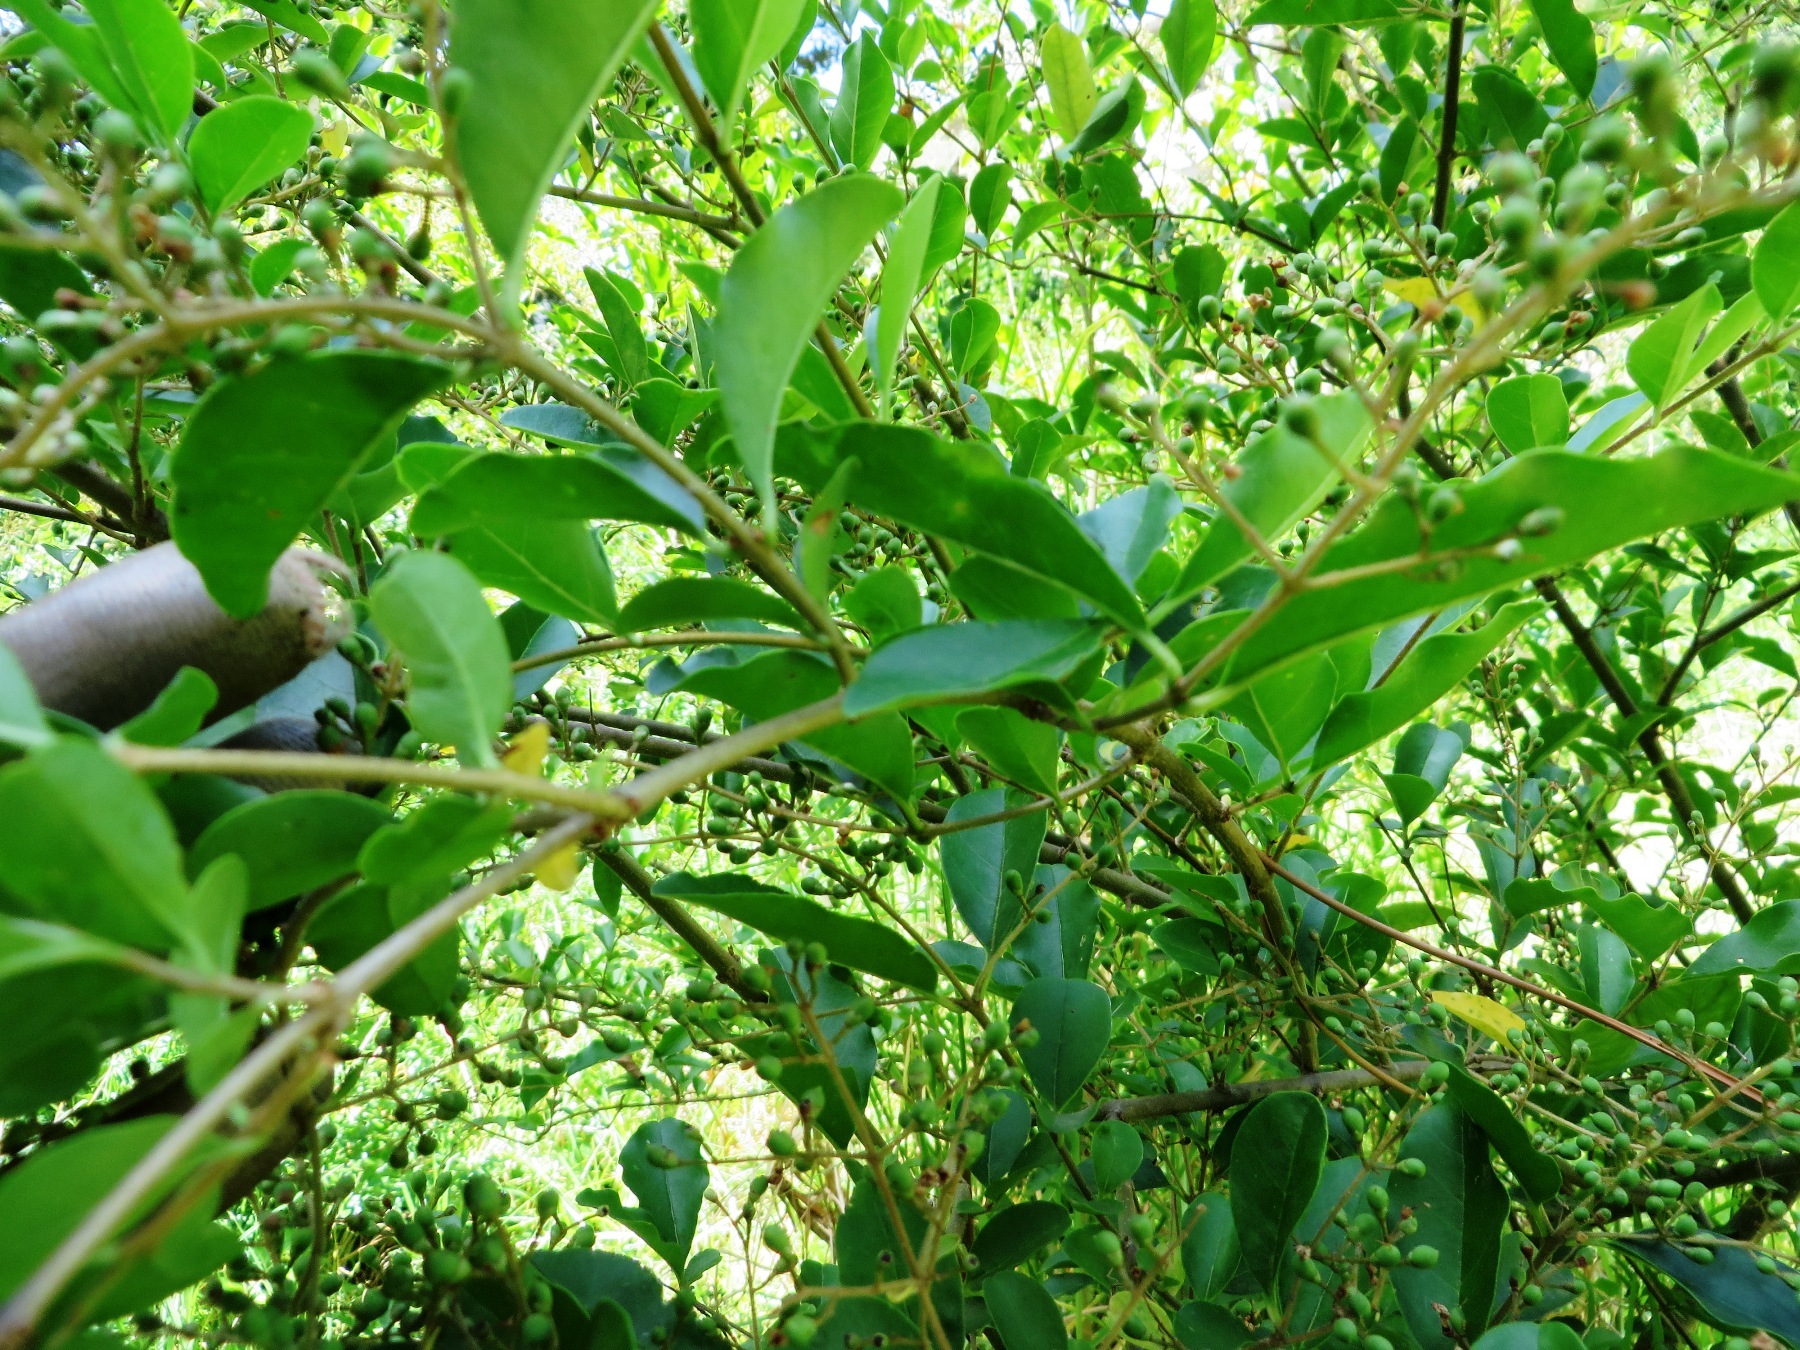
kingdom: Plantae
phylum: Tracheophyta
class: Magnoliopsida
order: Lamiales
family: Oleaceae
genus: Ligustrum
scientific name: Ligustrum sinense
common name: Chinese privet
